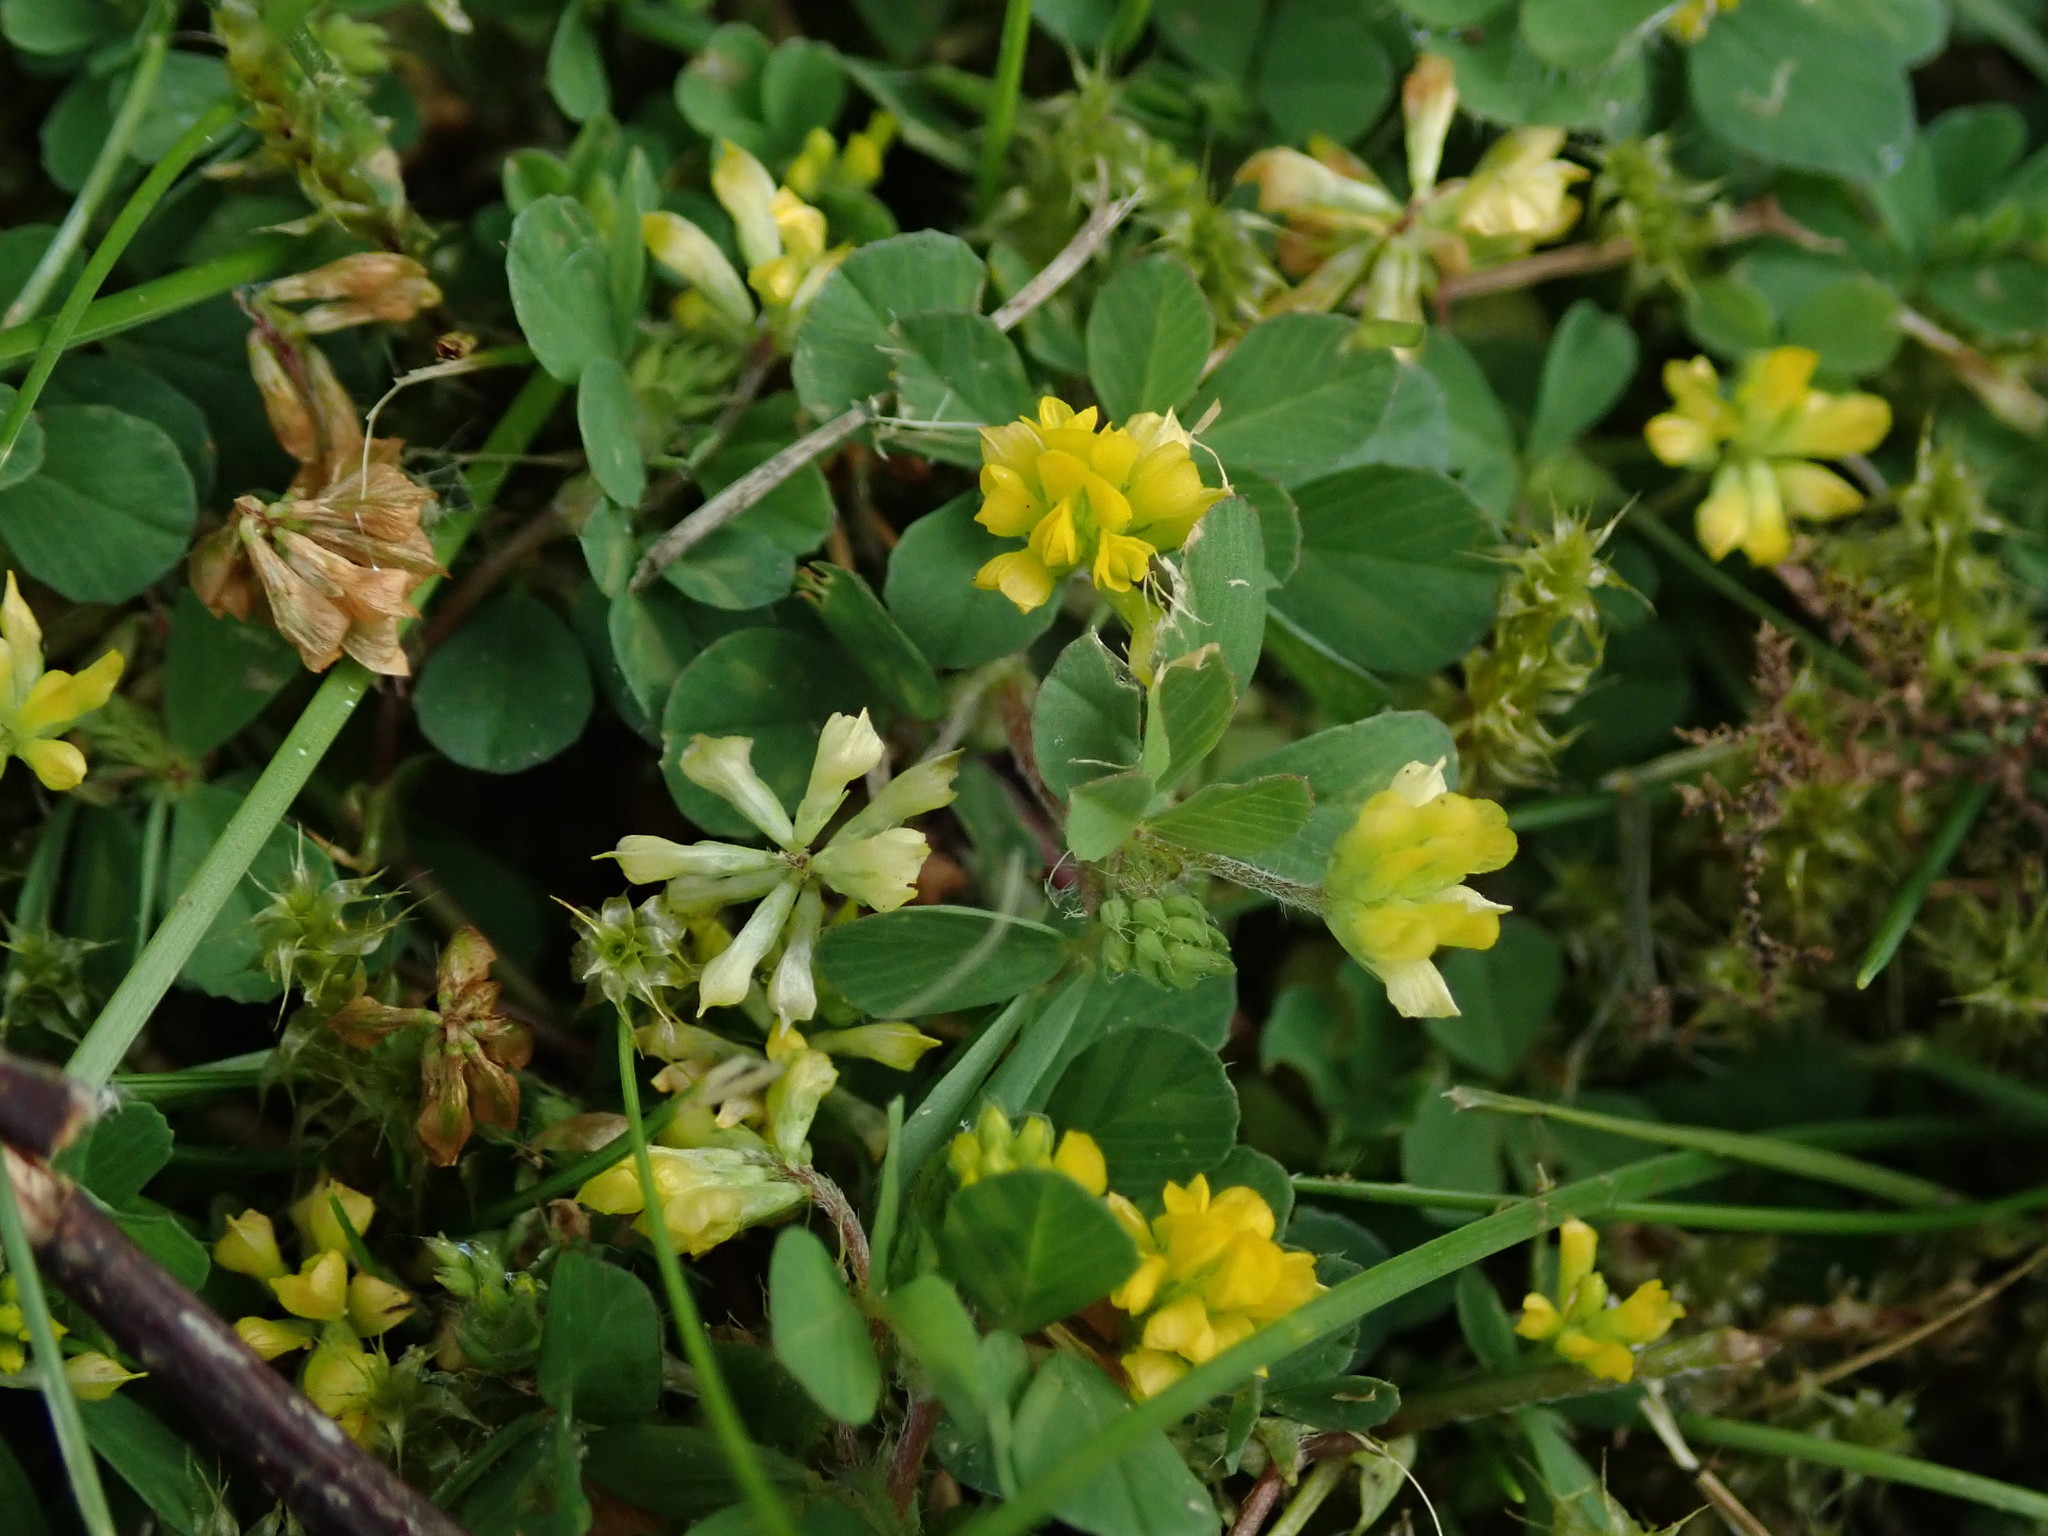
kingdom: Plantae
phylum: Tracheophyta
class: Magnoliopsida
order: Fabales
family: Fabaceae
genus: Trifolium
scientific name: Trifolium dubium
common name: Suckling clover
